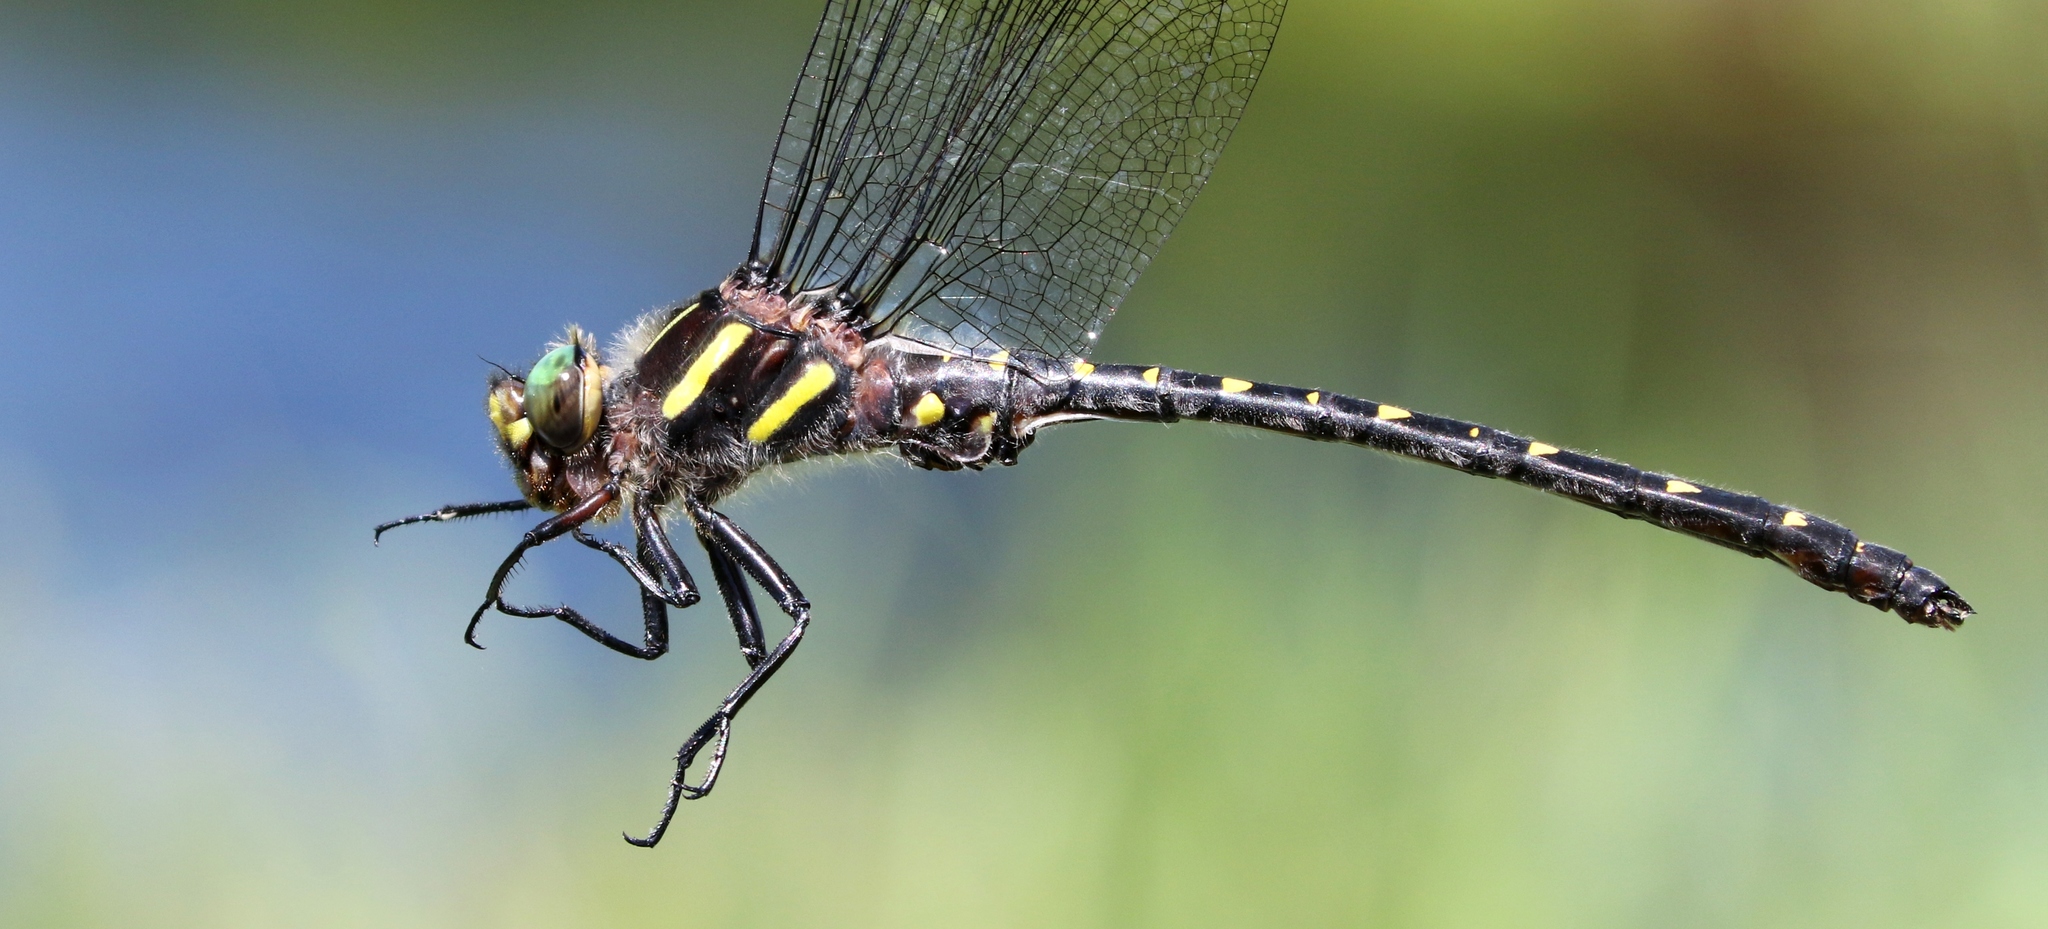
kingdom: Animalia
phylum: Arthropoda
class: Insecta
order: Odonata
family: Cordulegastridae
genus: Cordulegaster
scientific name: Cordulegaster maculata
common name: Twin-spotted spiketail
